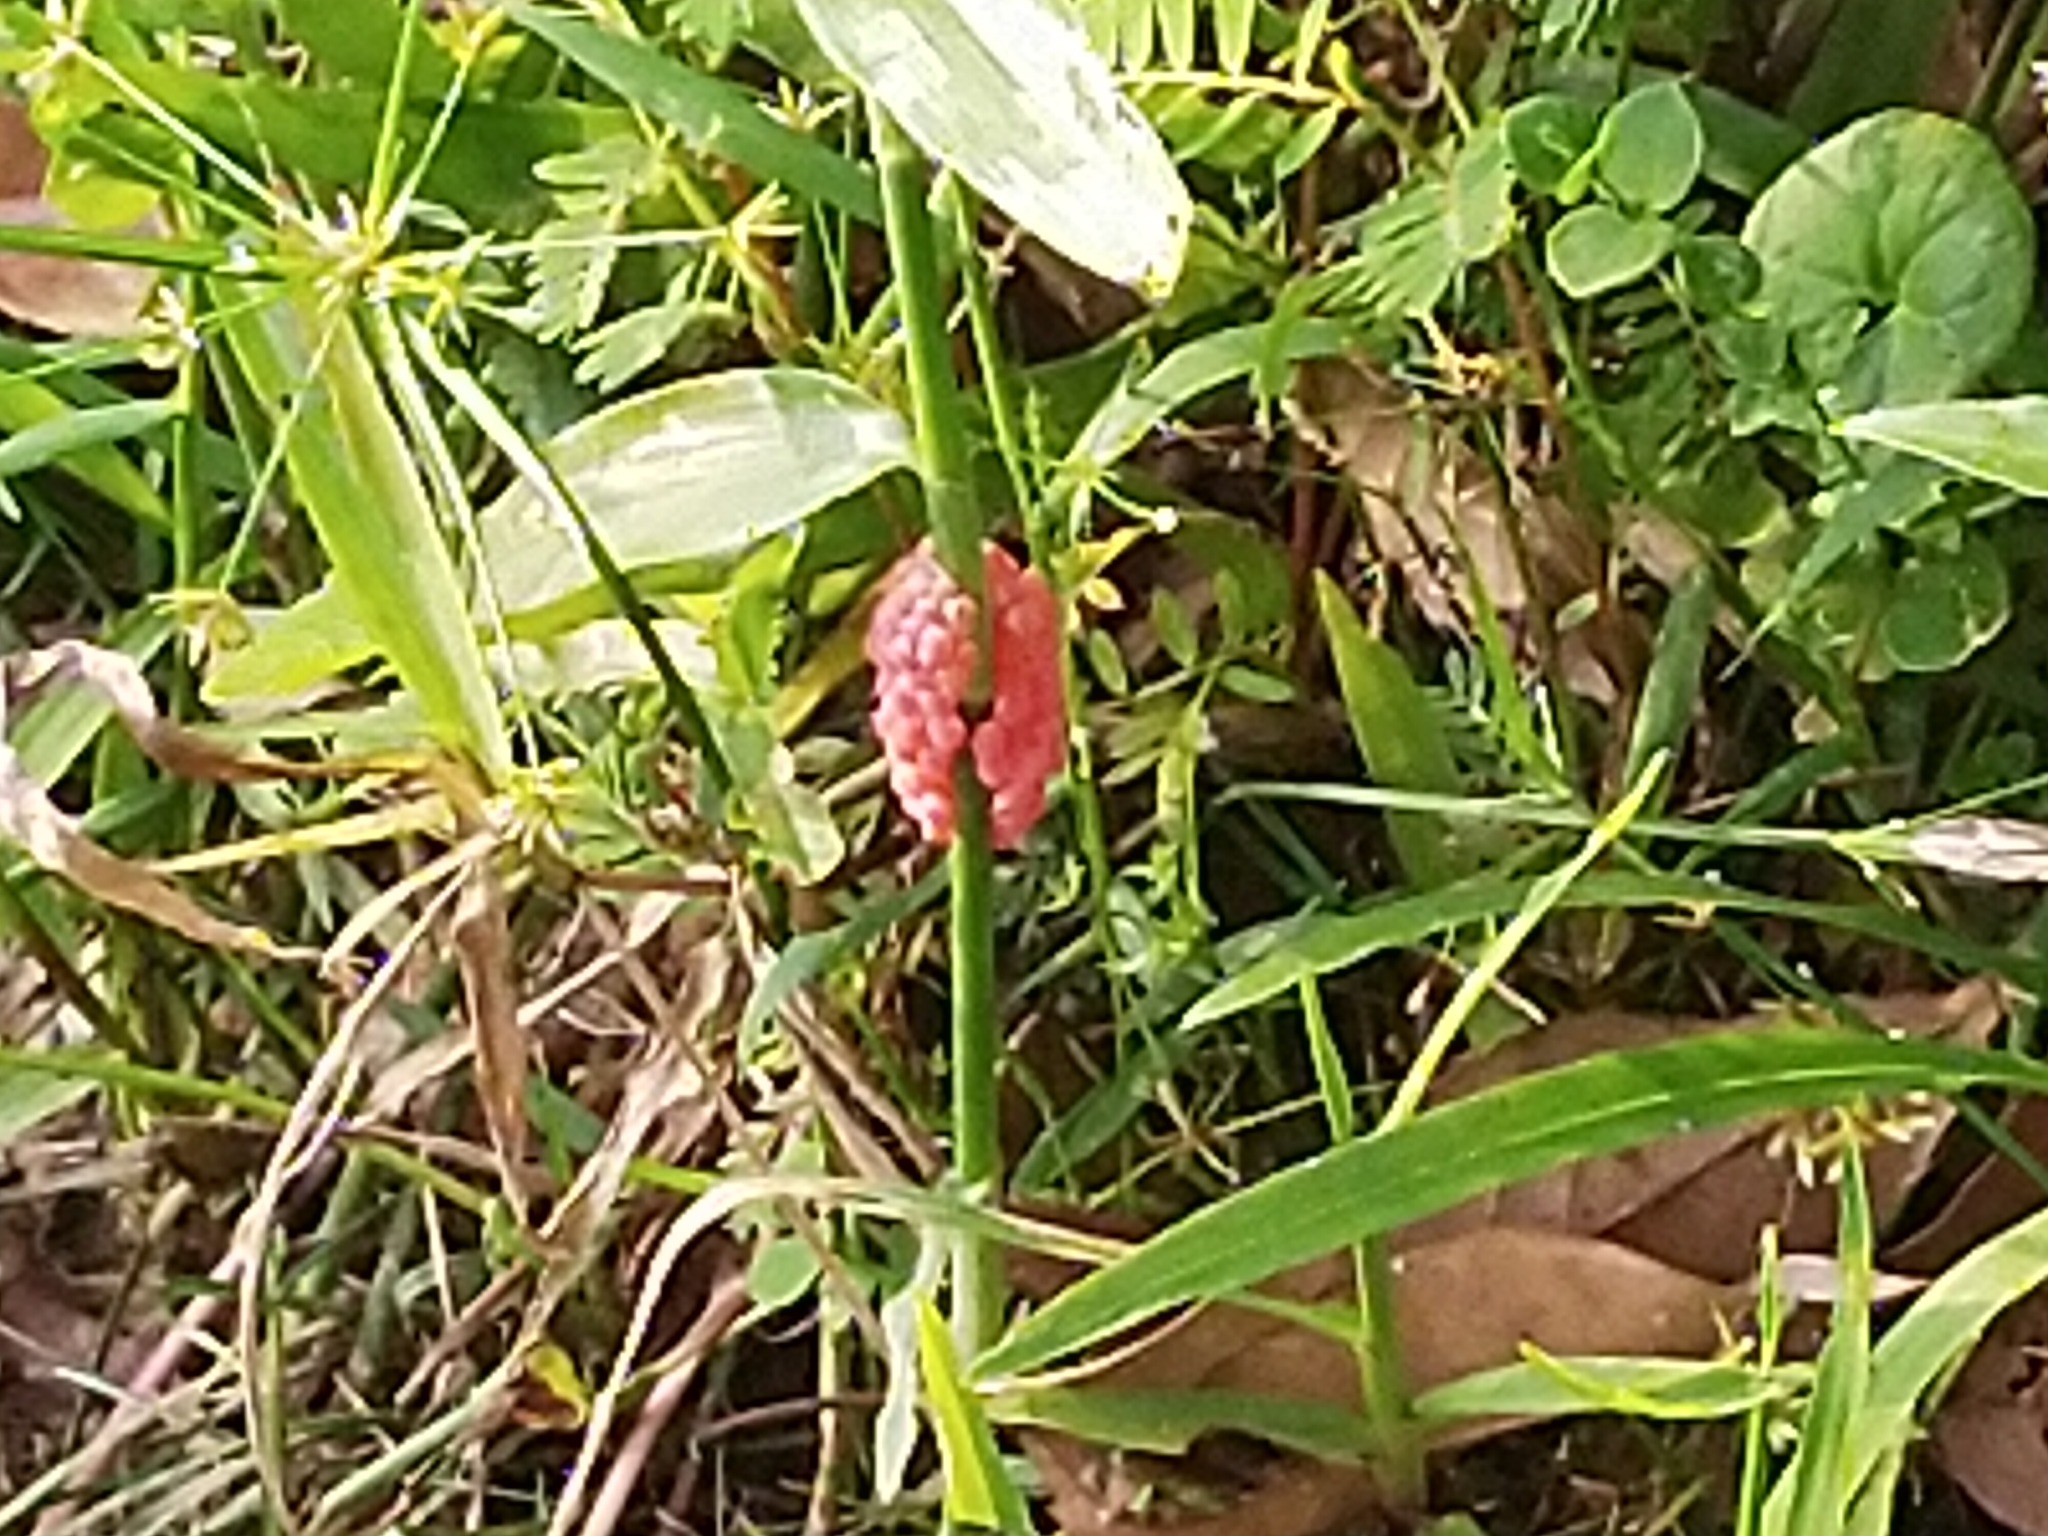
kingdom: Animalia
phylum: Mollusca
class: Gastropoda
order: Architaenioglossa
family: Ampullariidae
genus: Pomacea
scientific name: Pomacea canaliculata
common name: Channeled applesnail
